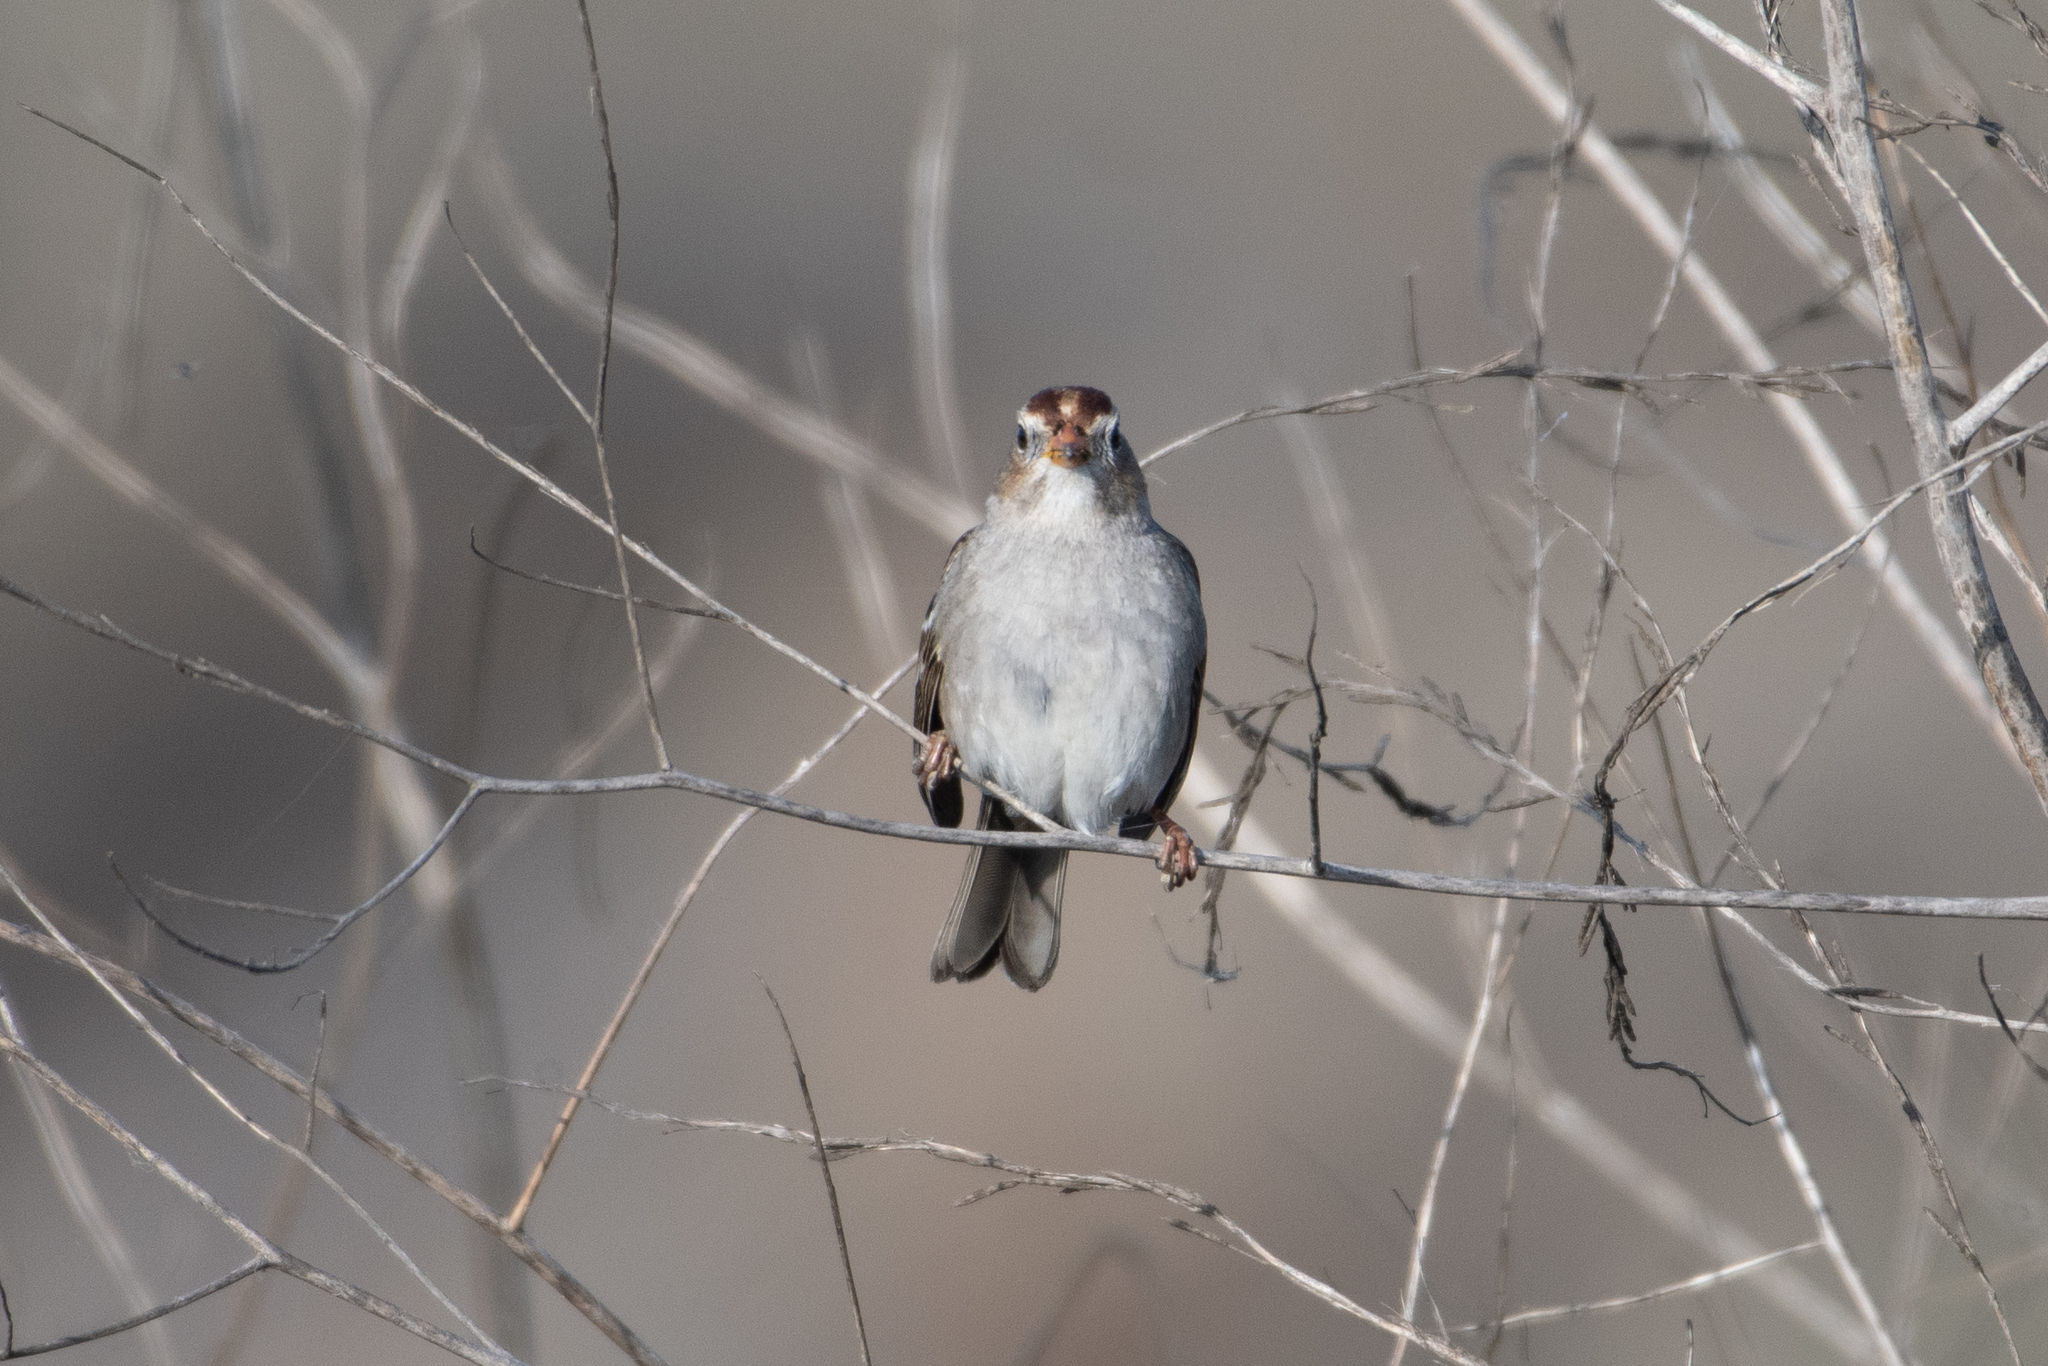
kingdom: Animalia
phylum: Chordata
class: Aves
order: Passeriformes
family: Passerellidae
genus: Zonotrichia
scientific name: Zonotrichia leucophrys
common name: White-crowned sparrow
